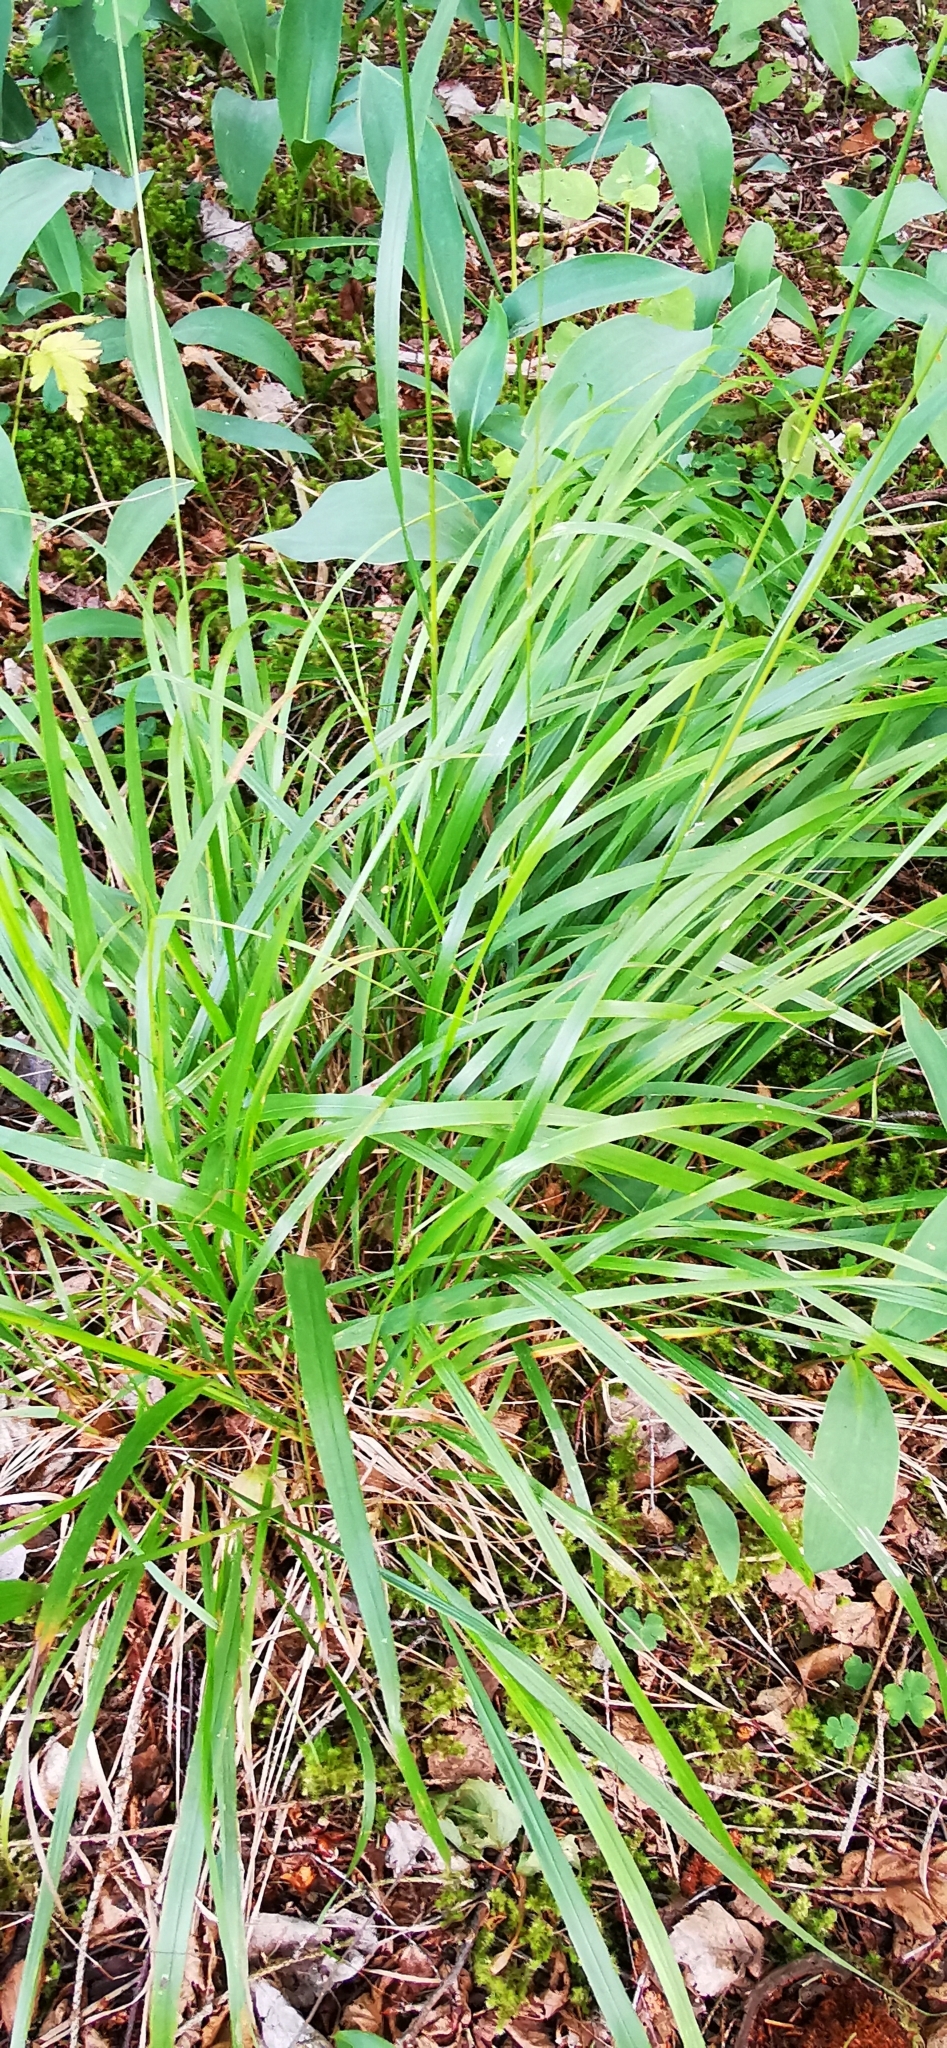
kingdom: Plantae
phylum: Tracheophyta
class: Liliopsida
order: Poales
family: Poaceae
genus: Calamagrostis
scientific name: Calamagrostis arundinacea
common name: Metskastik
